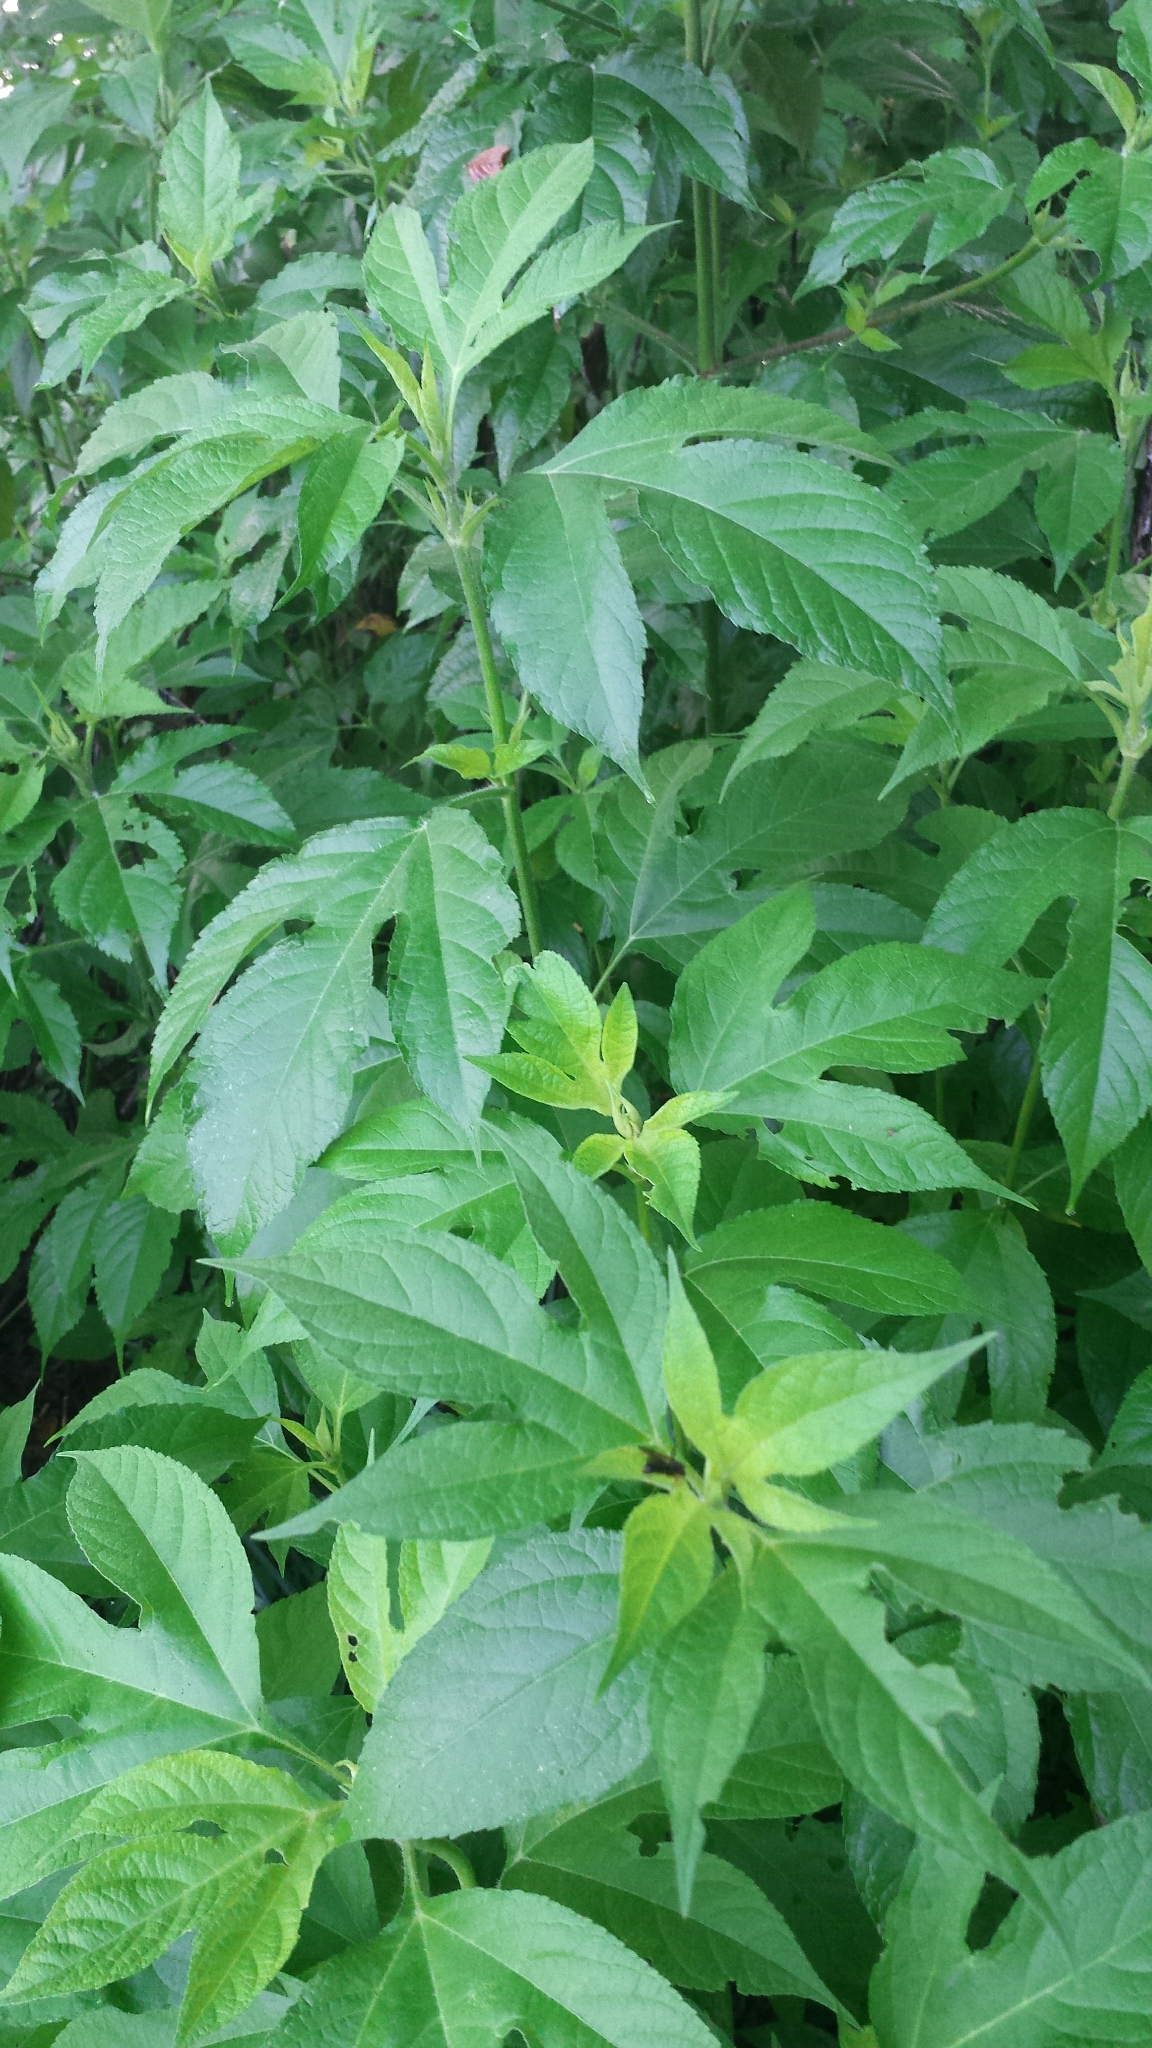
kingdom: Plantae
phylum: Tracheophyta
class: Magnoliopsida
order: Asterales
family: Asteraceae
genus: Ambrosia
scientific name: Ambrosia trifida
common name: Giant ragweed
